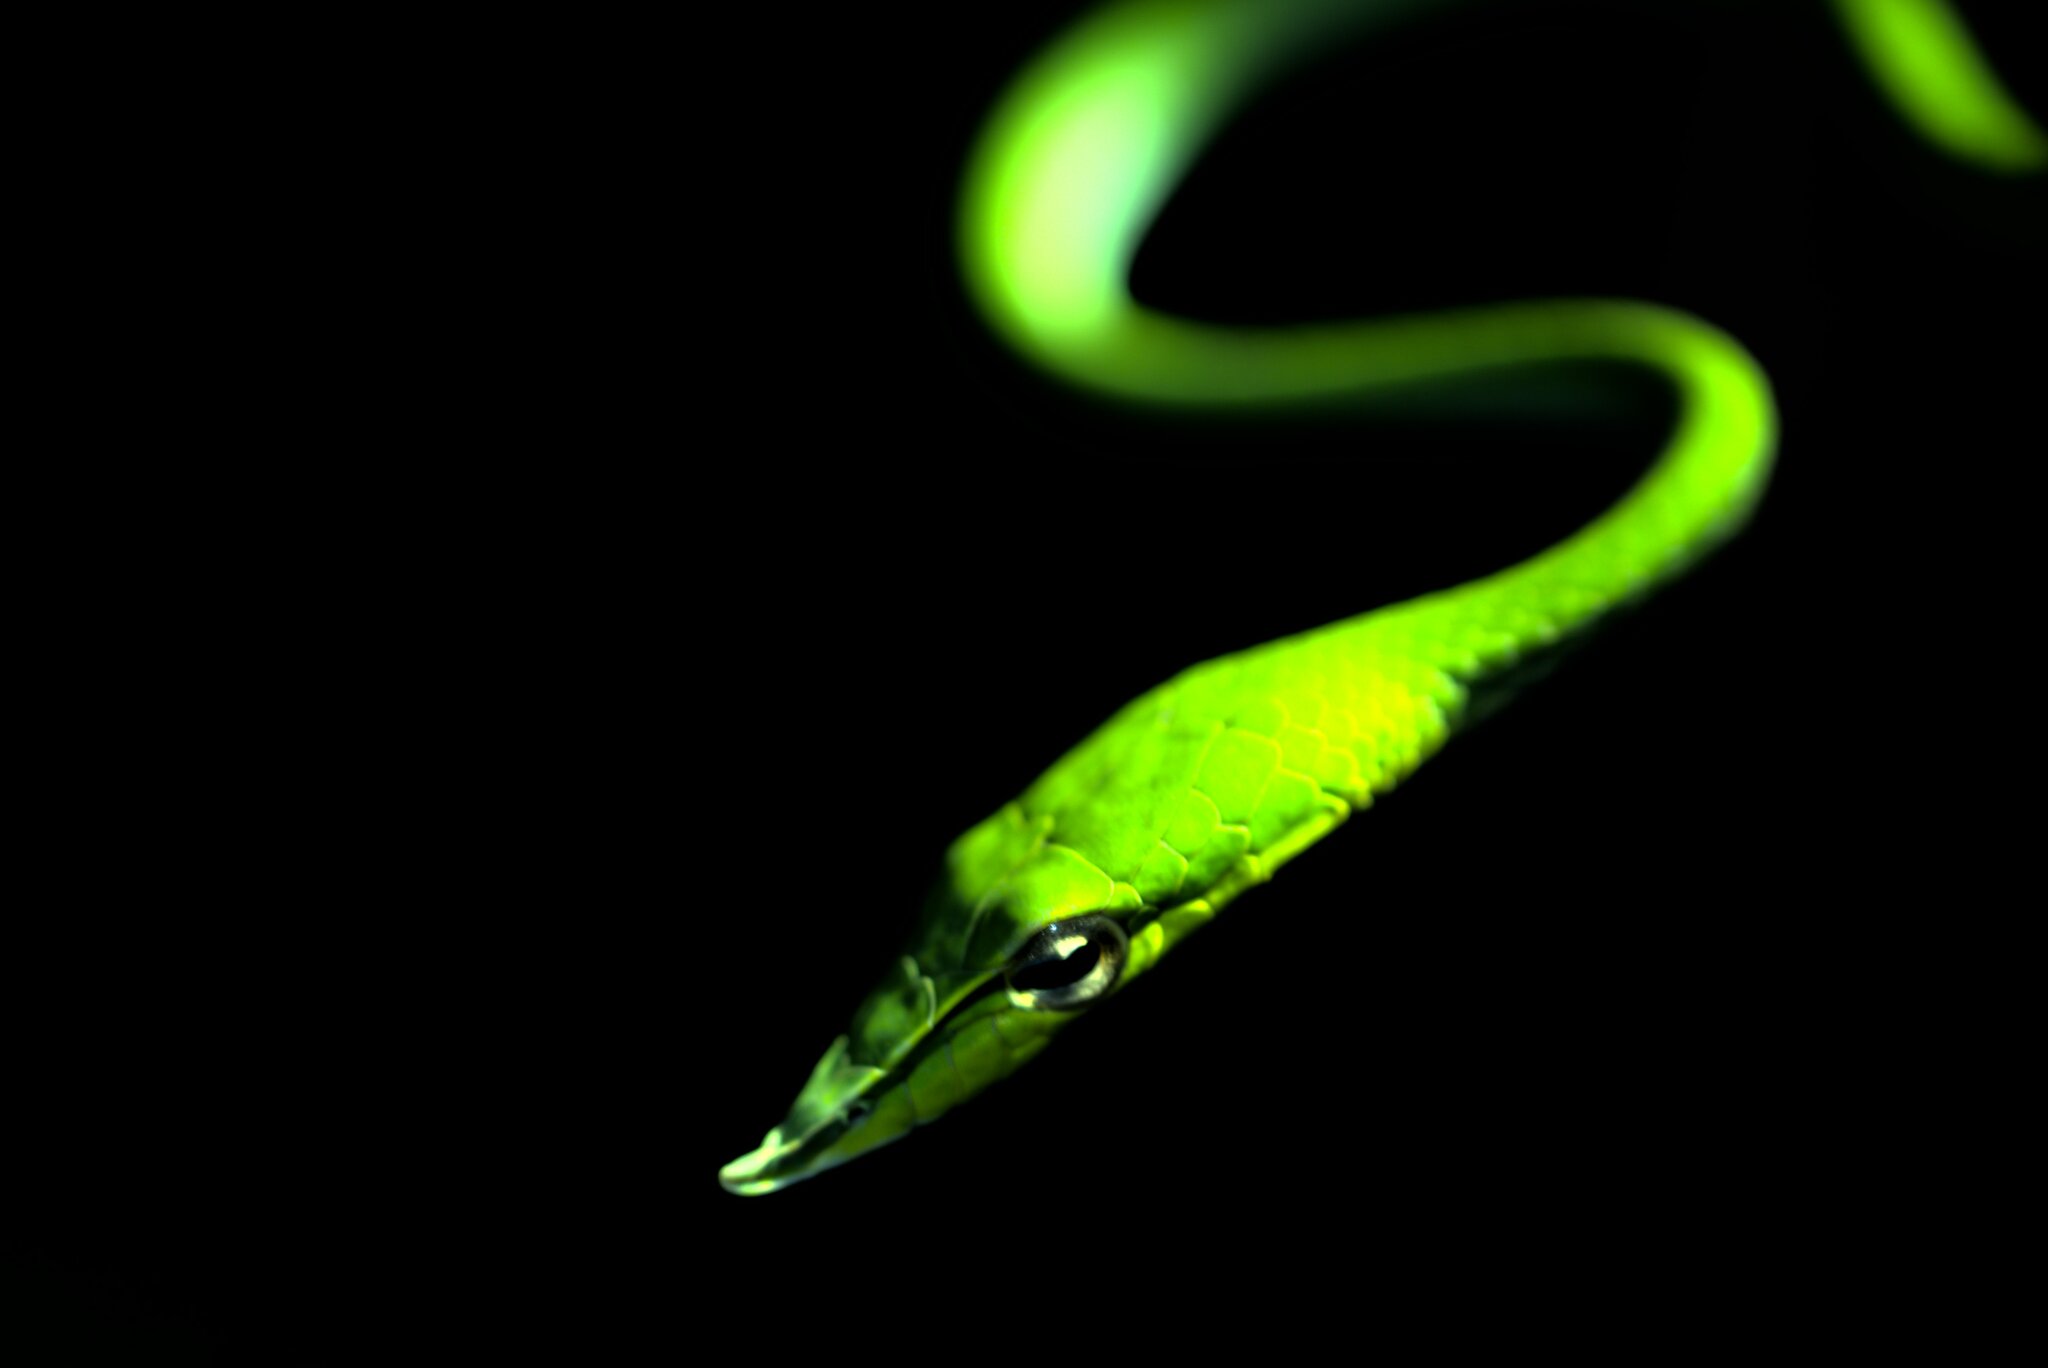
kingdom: Animalia
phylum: Chordata
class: Squamata
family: Colubridae
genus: Ahaetulla
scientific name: Ahaetulla
